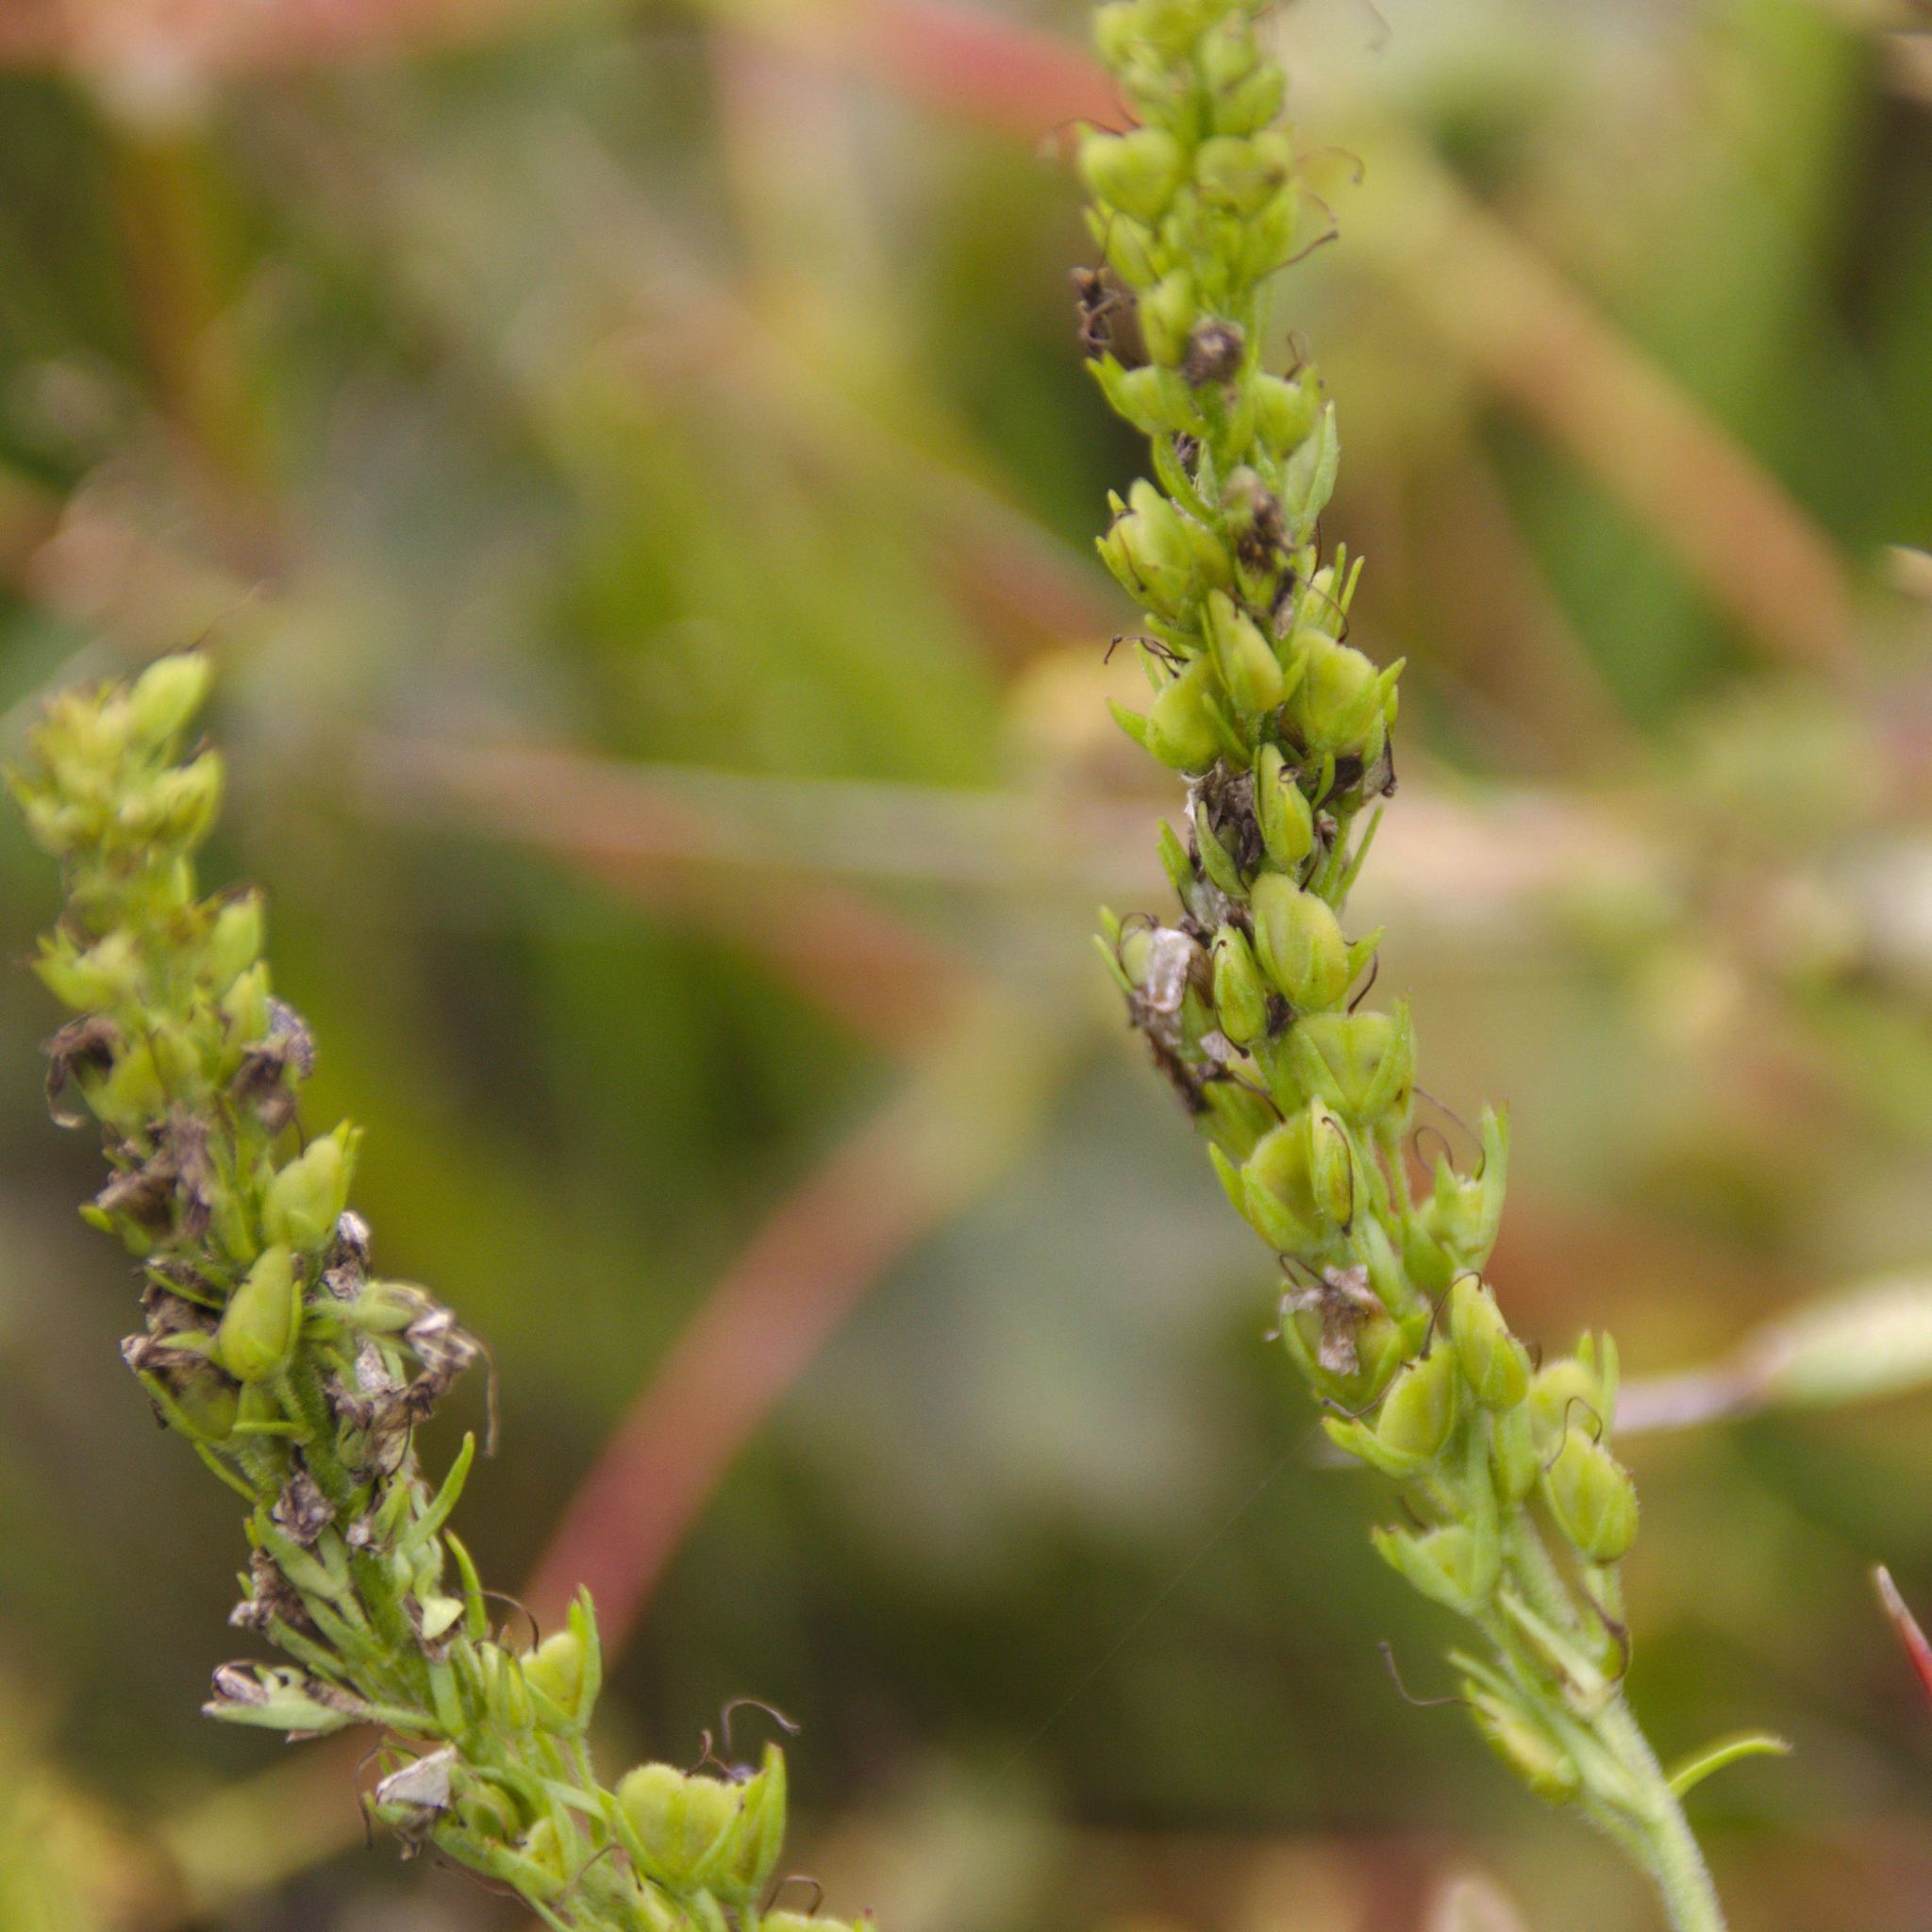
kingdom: Plantae
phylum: Tracheophyta
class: Magnoliopsida
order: Lamiales
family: Plantaginaceae
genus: Veronica
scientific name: Veronica teucrium
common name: Large speedwell
